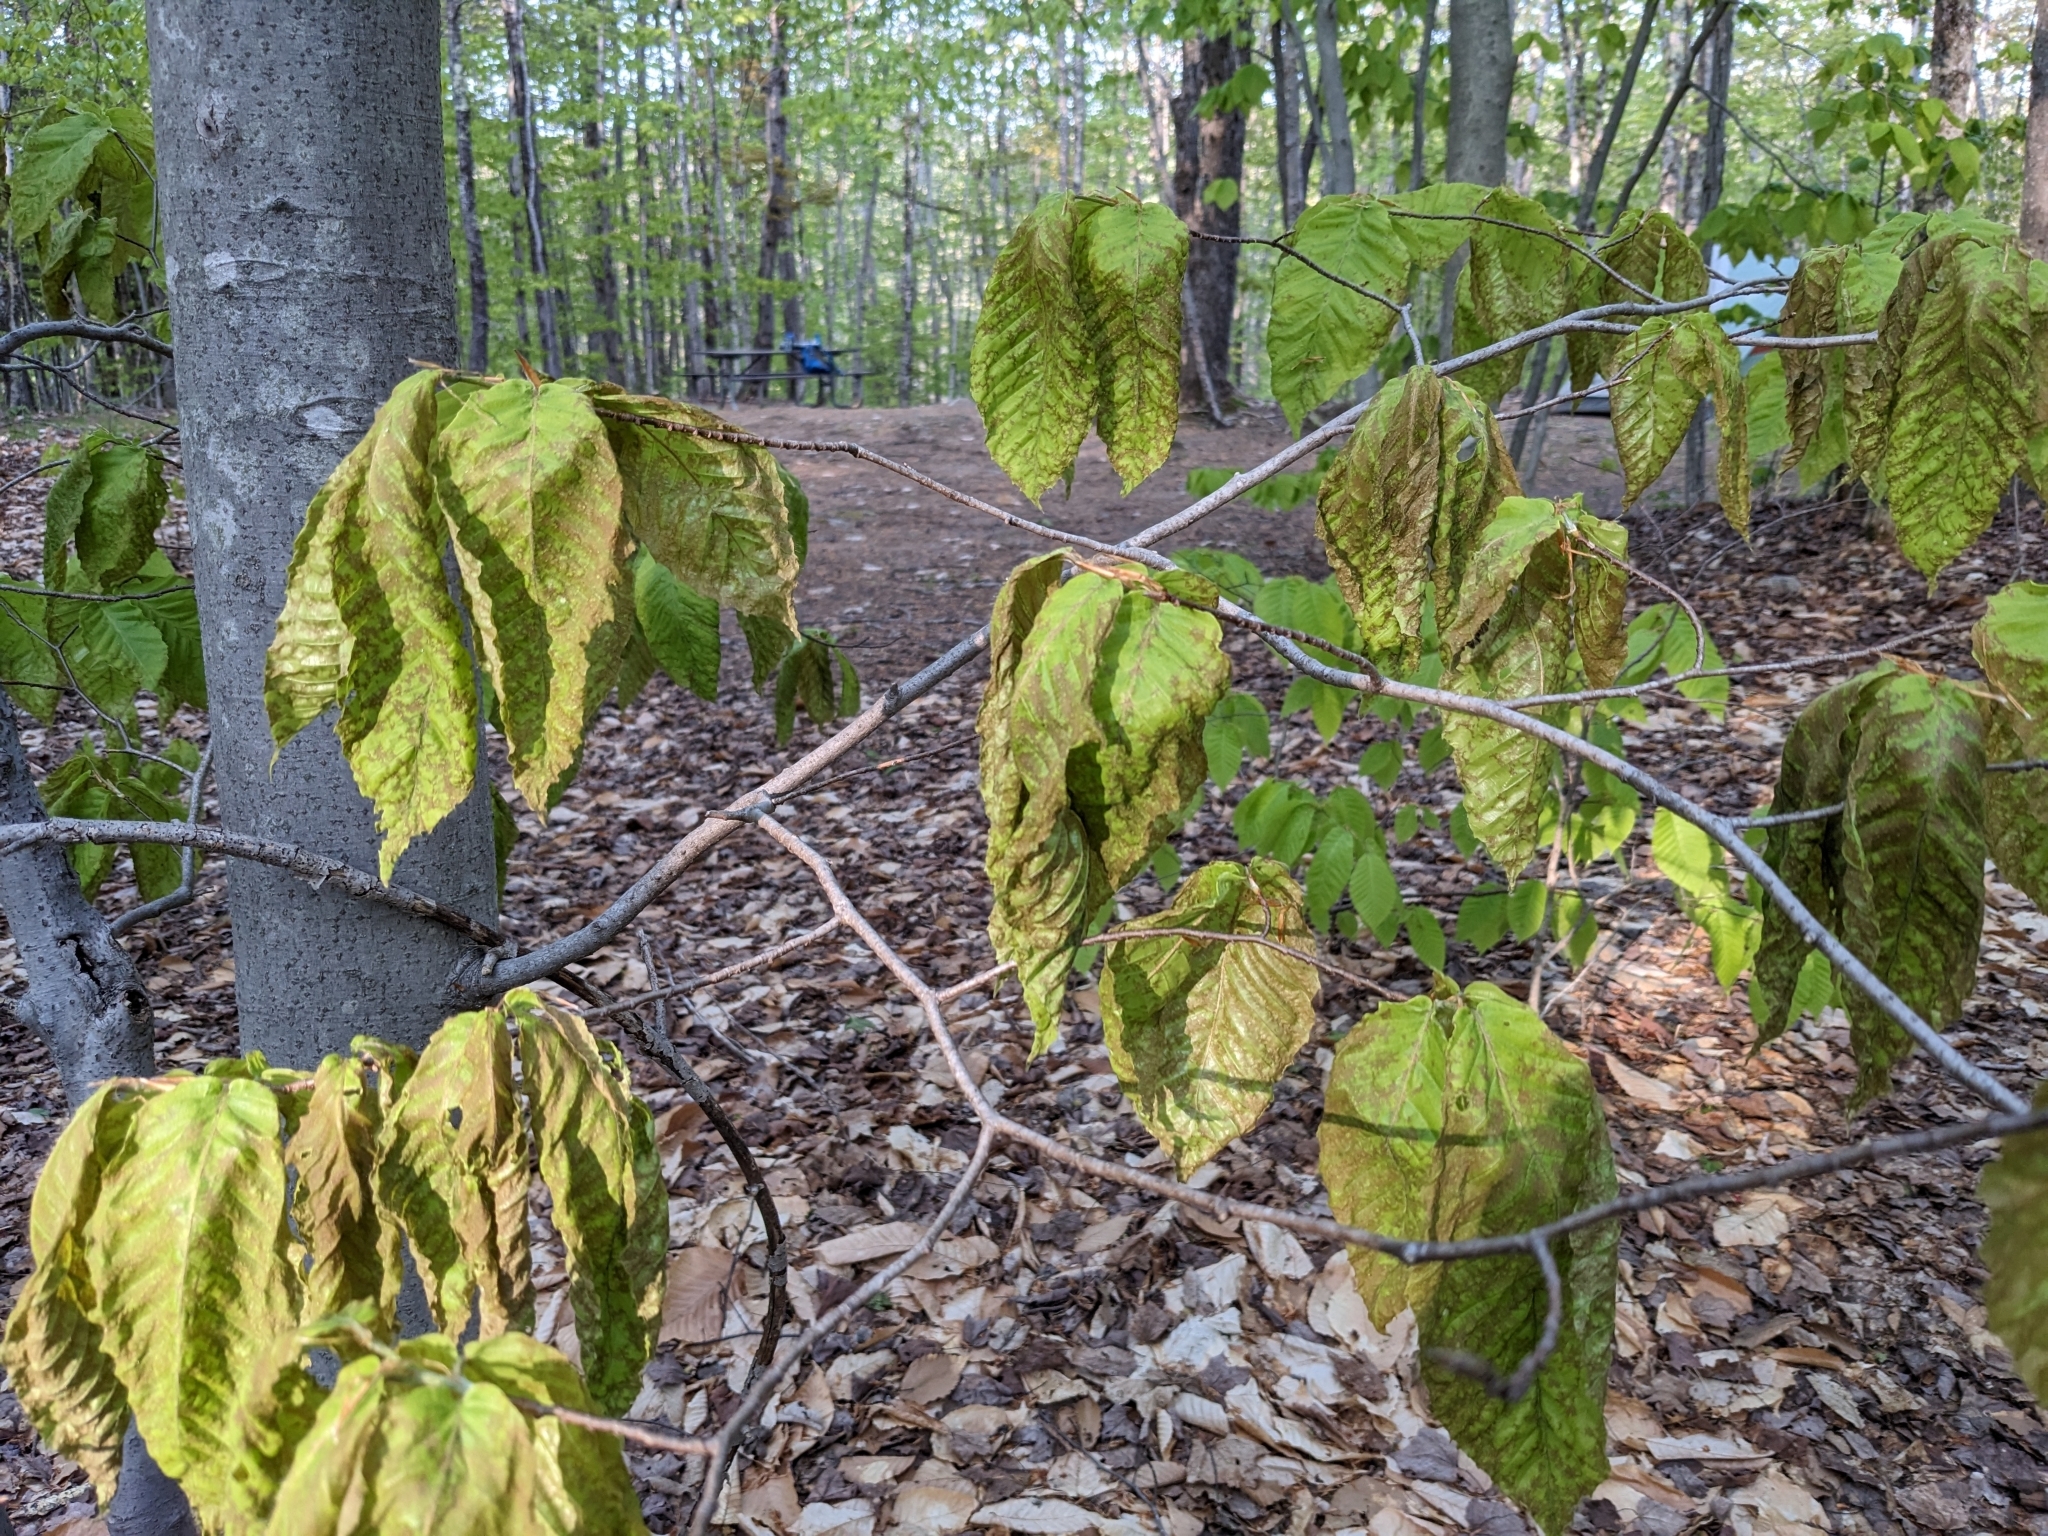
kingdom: Plantae
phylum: Tracheophyta
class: Magnoliopsida
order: Fagales
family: Fagaceae
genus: Fagus
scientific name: Fagus grandifolia
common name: American beech
